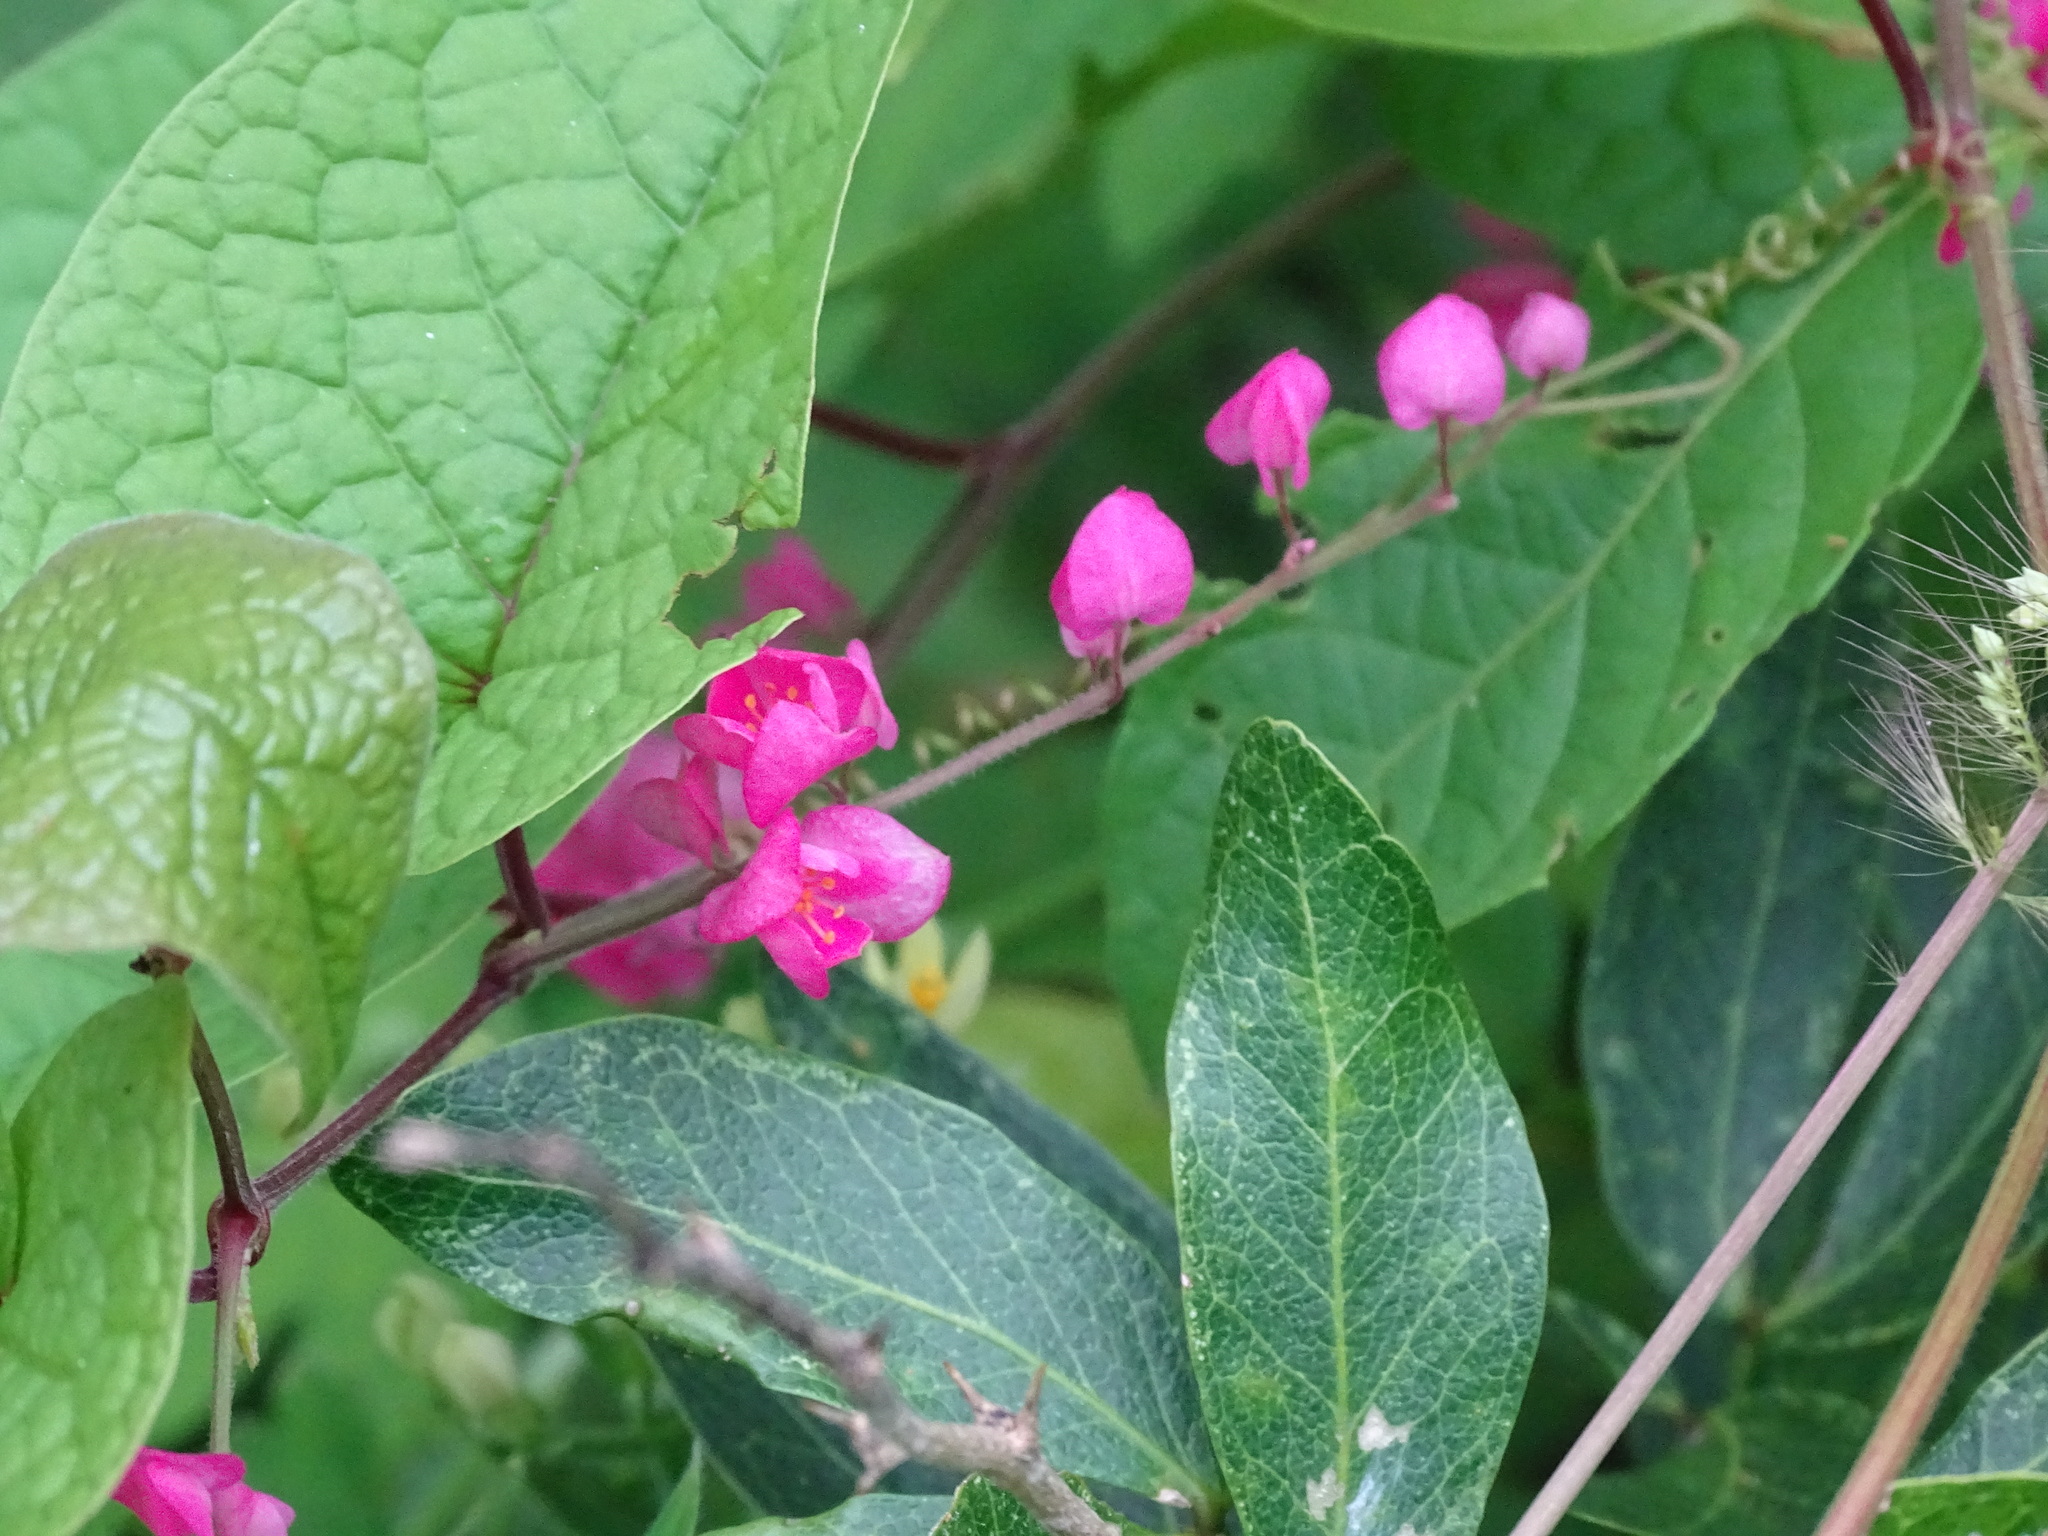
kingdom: Plantae
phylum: Tracheophyta
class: Magnoliopsida
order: Caryophyllales
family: Polygonaceae
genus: Antigonon
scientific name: Antigonon leptopus
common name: Coral vine
